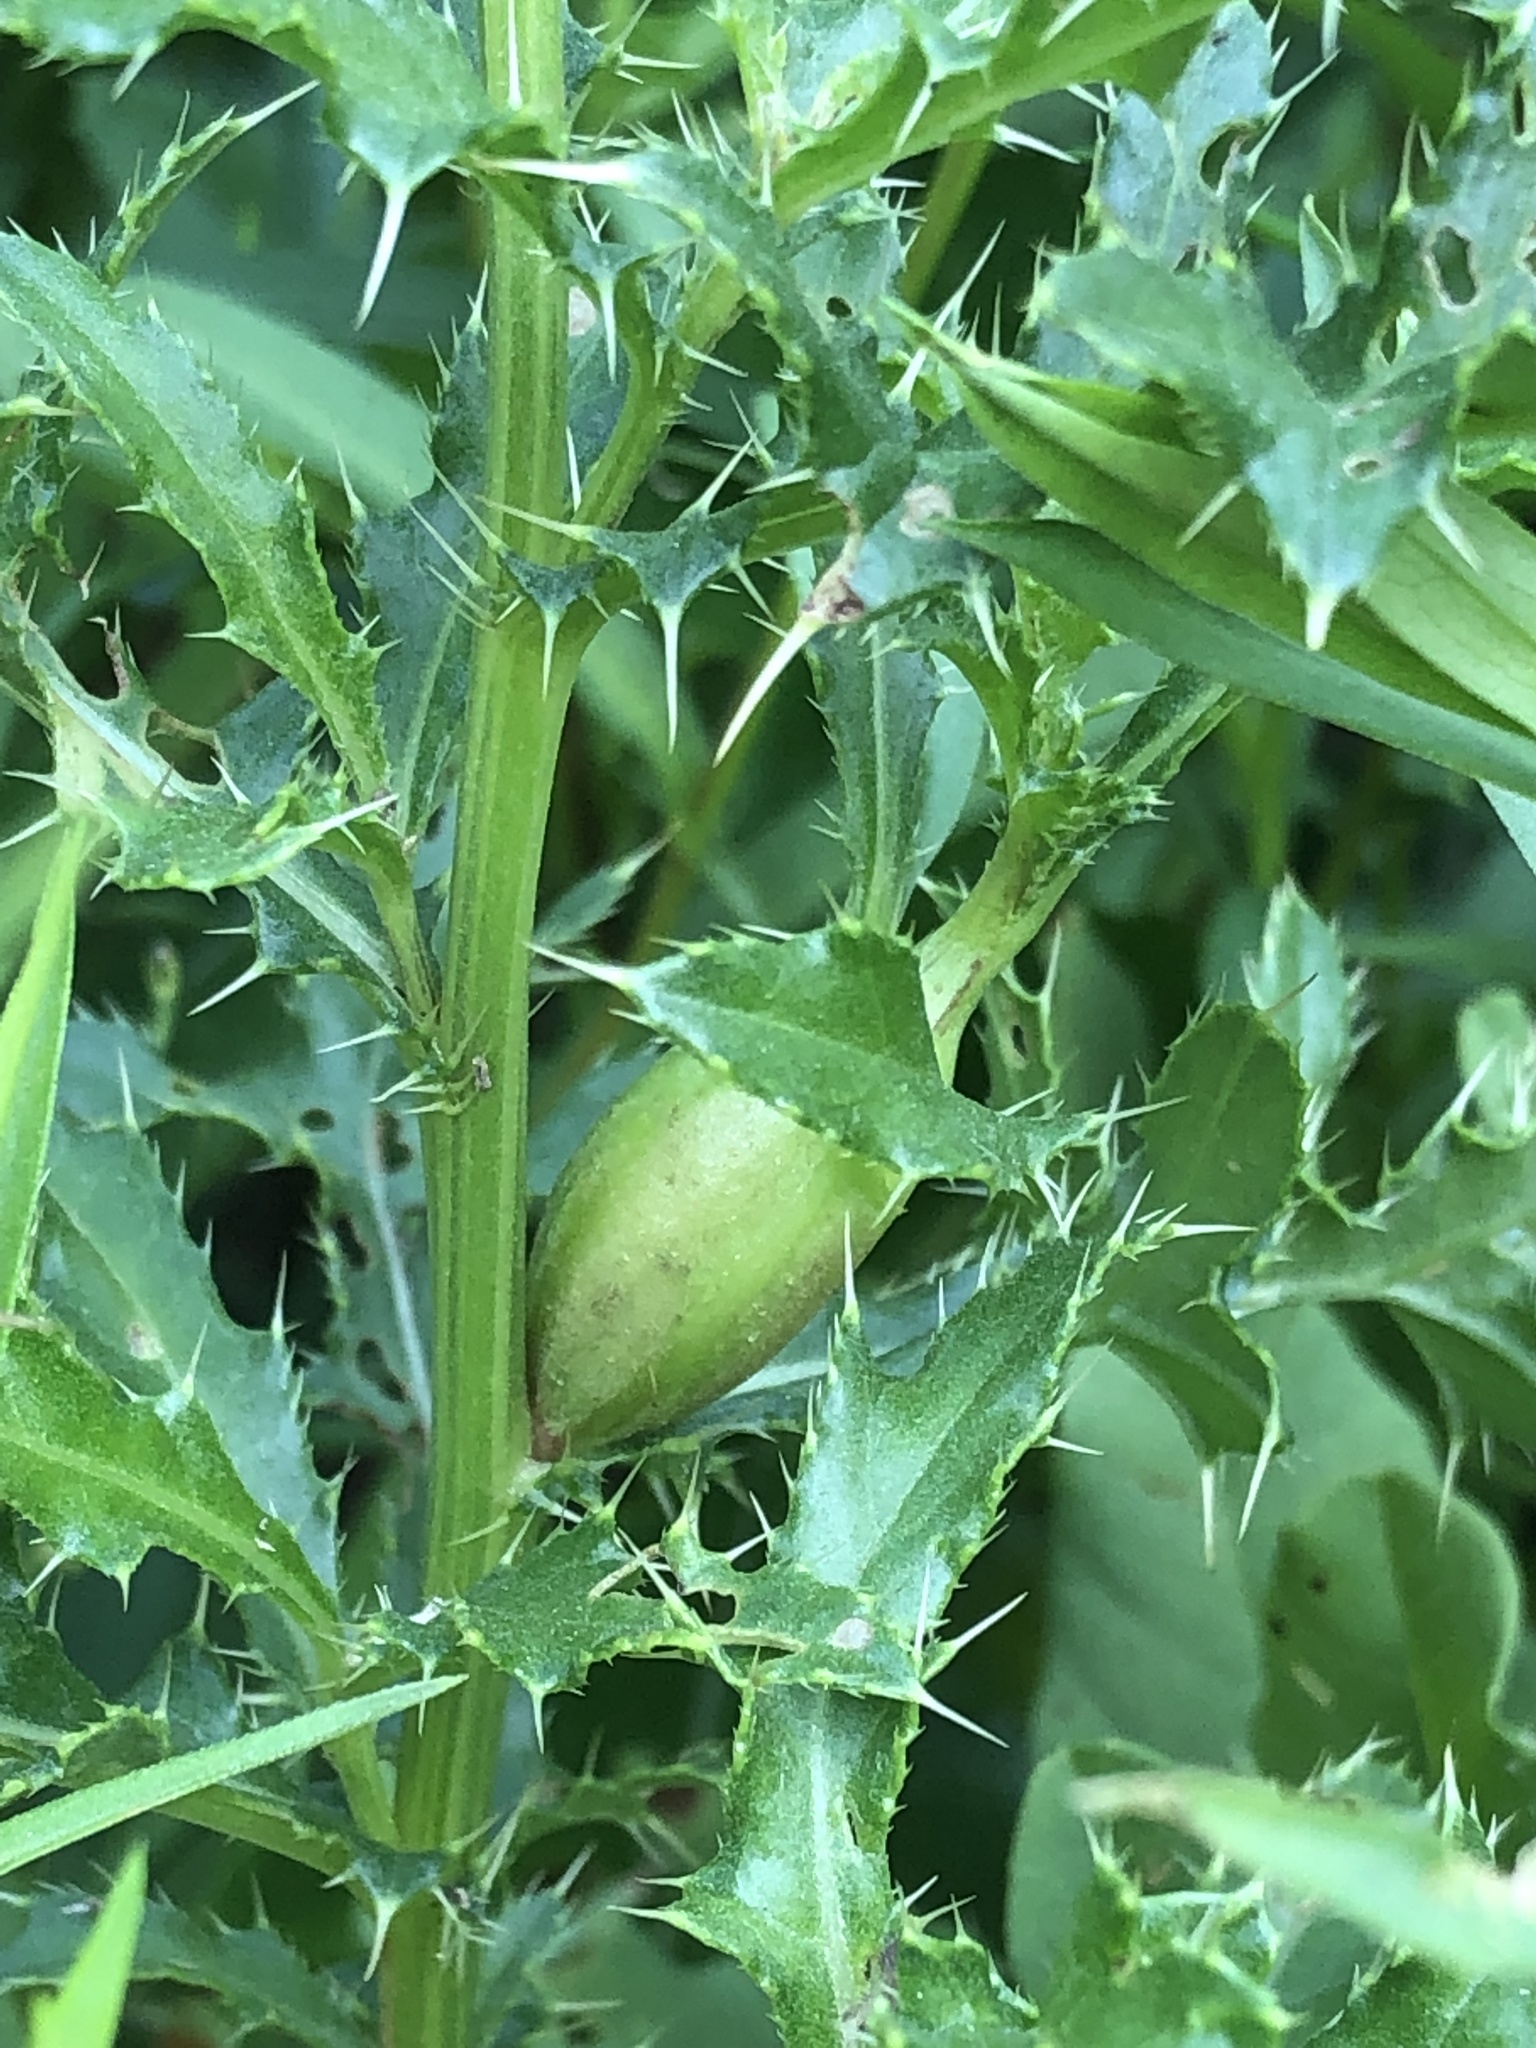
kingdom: Animalia
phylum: Arthropoda
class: Insecta
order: Diptera
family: Tephritidae
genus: Urophora
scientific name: Urophora cardui
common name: Fruit fly
